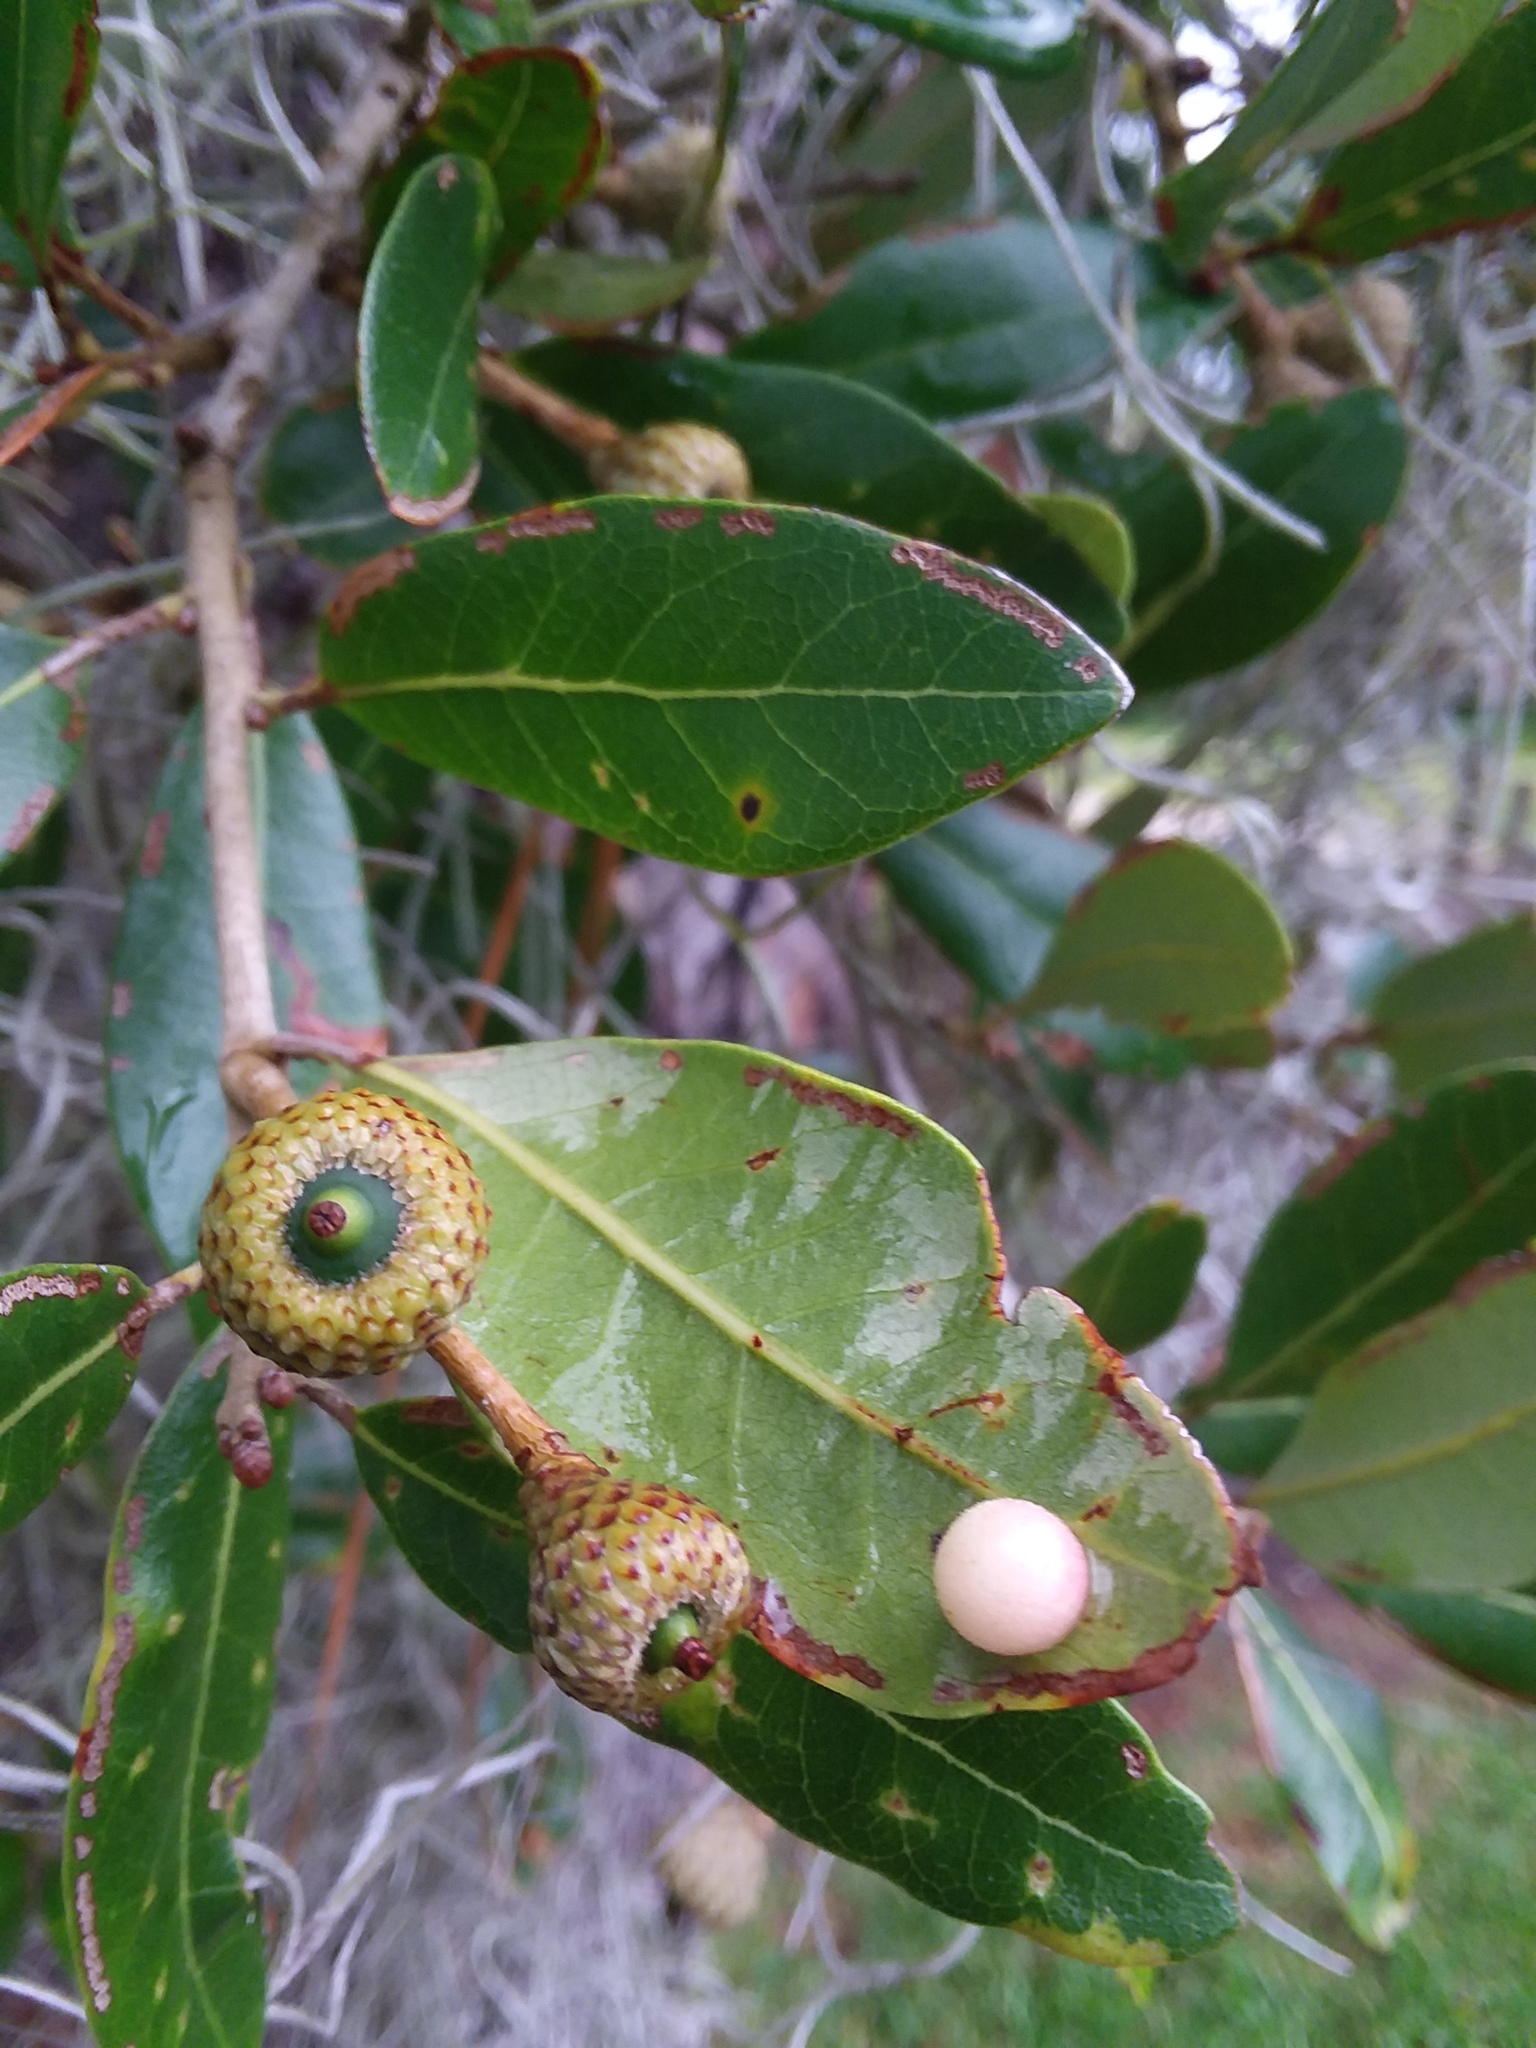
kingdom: Plantae
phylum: Tracheophyta
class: Magnoliopsida
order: Fagales
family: Fagaceae
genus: Quercus
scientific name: Quercus virginiana
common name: Southern live oak
